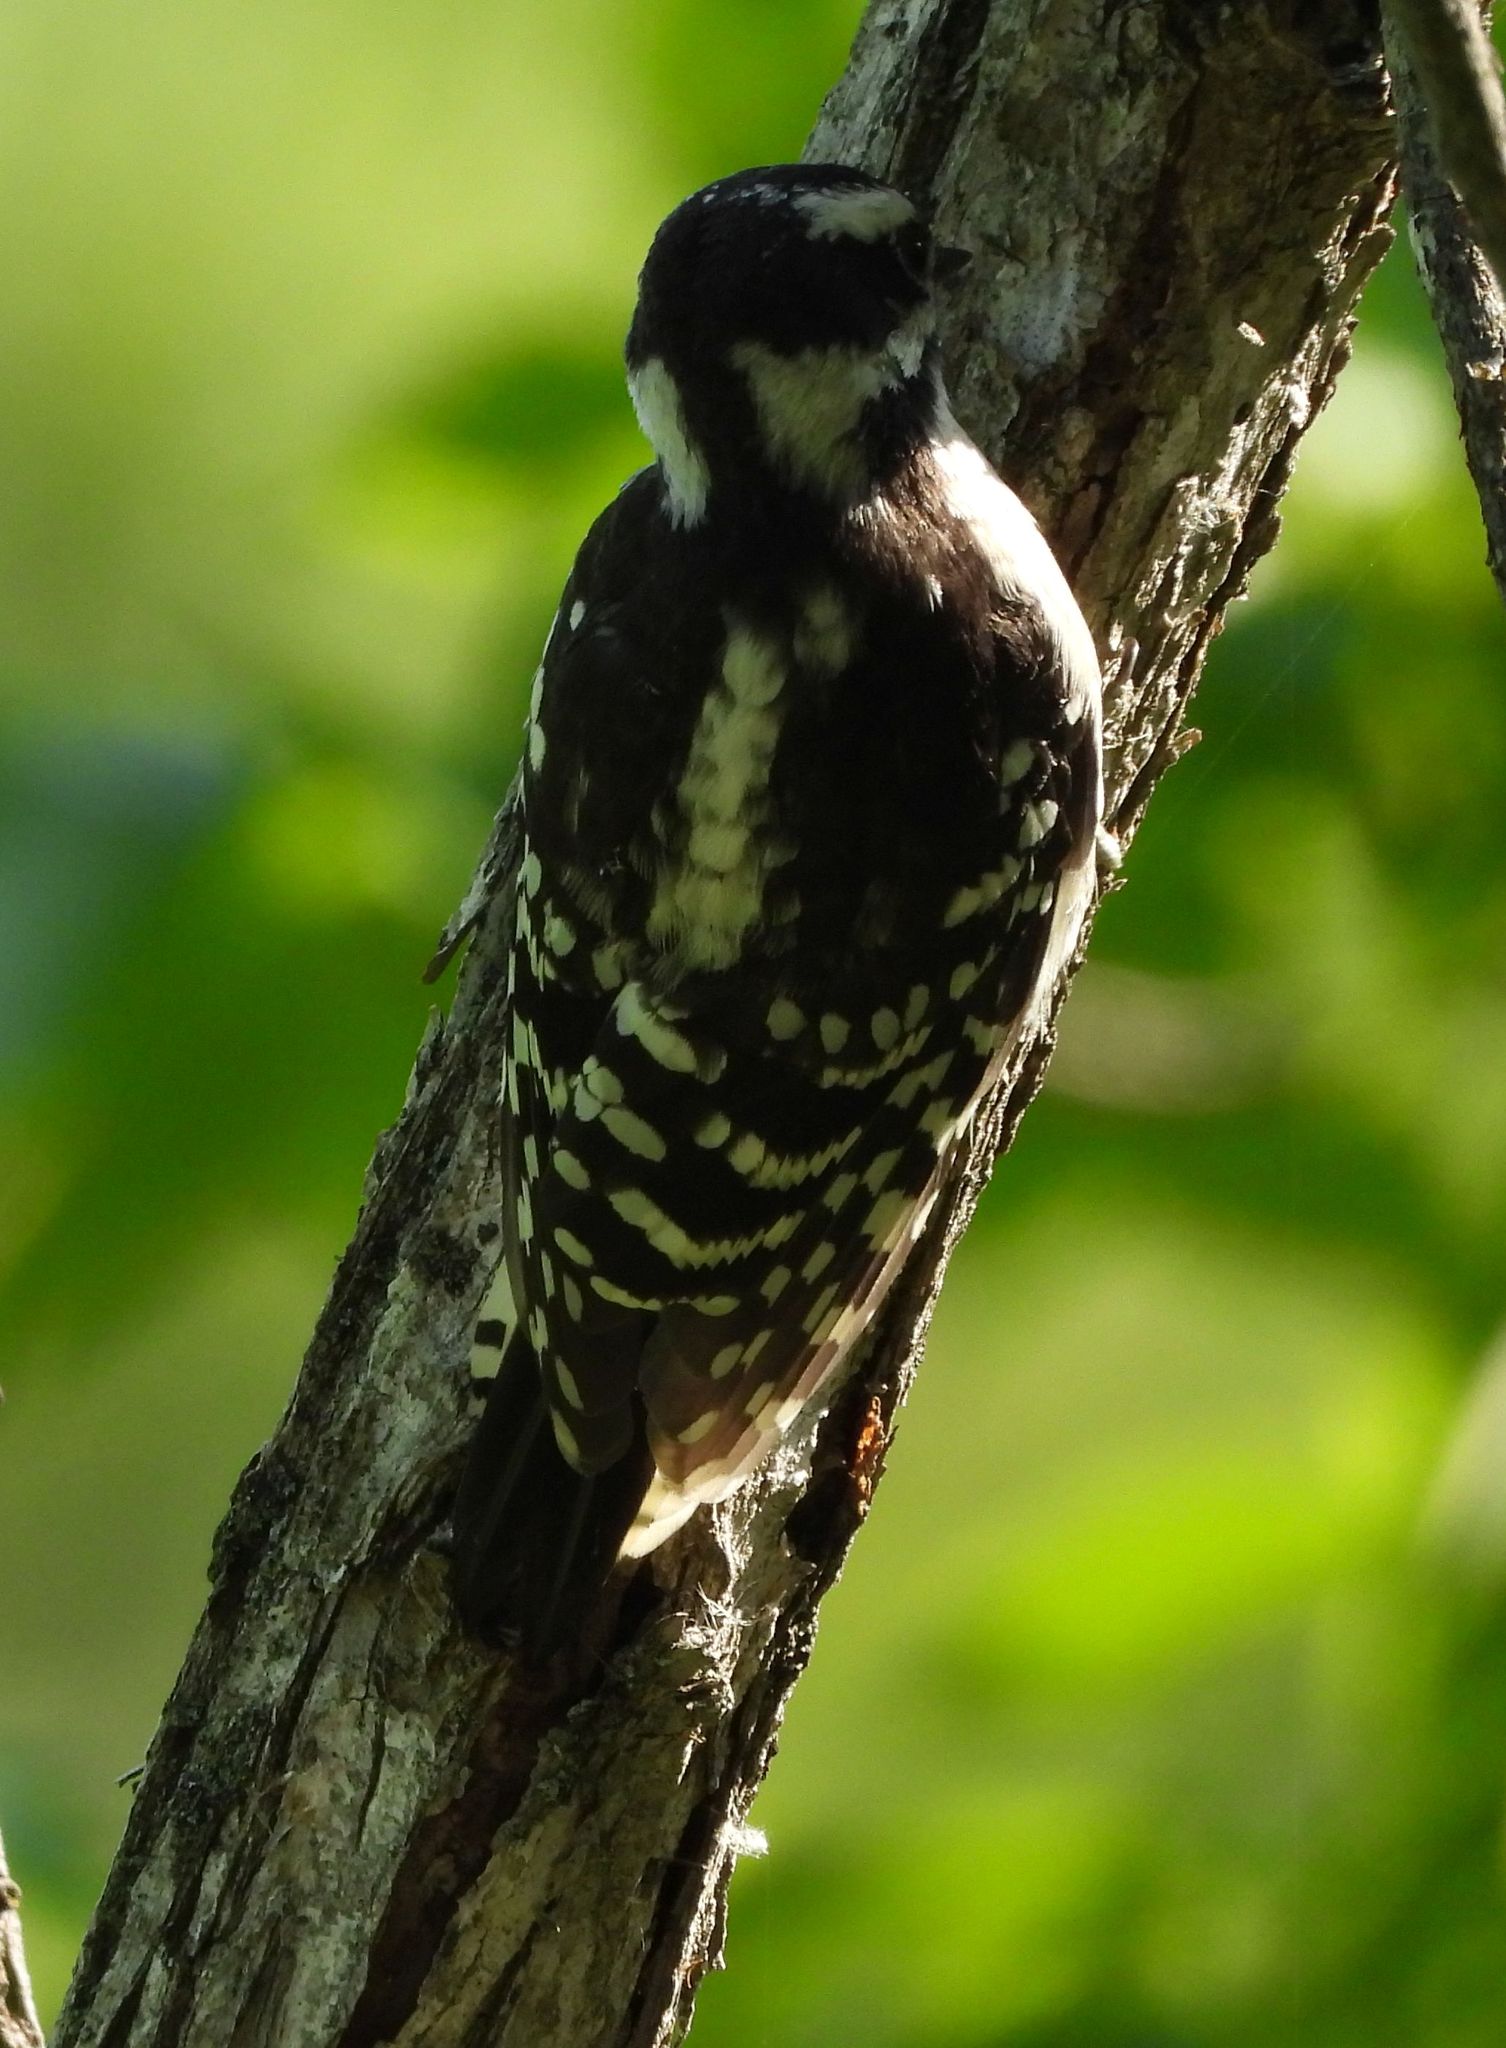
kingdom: Animalia
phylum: Chordata
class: Aves
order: Piciformes
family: Picidae
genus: Dryobates
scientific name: Dryobates pubescens
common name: Downy woodpecker
